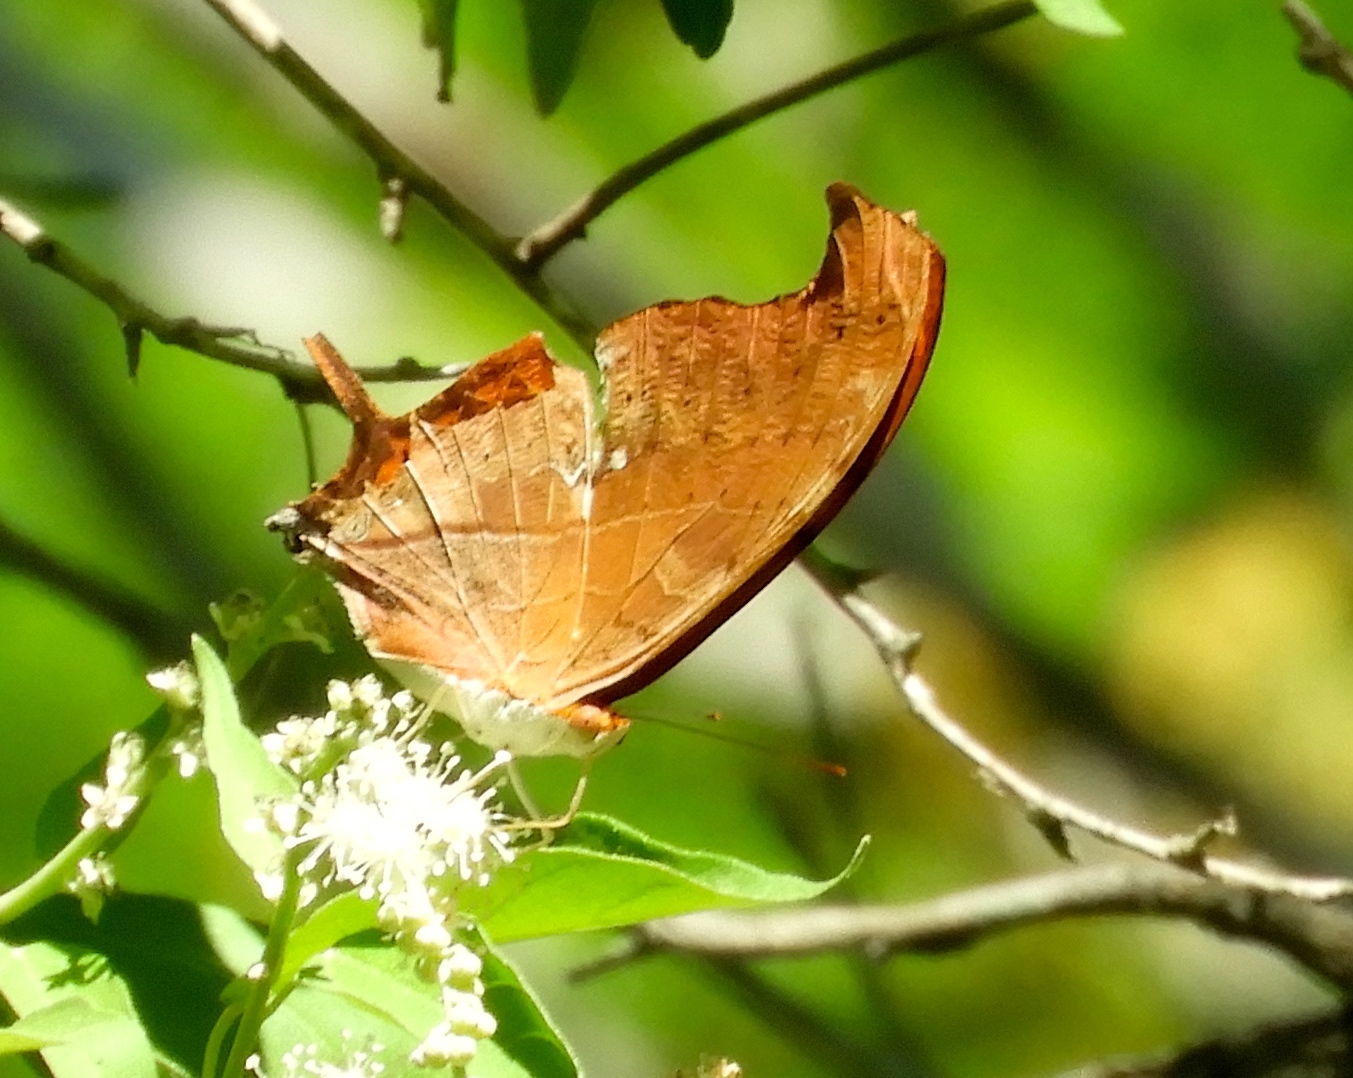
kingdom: Animalia
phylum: Arthropoda
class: Insecta
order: Lepidoptera
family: Nymphalidae
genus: Marpesia
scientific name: Marpesia petreus
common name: Red dagger wing
